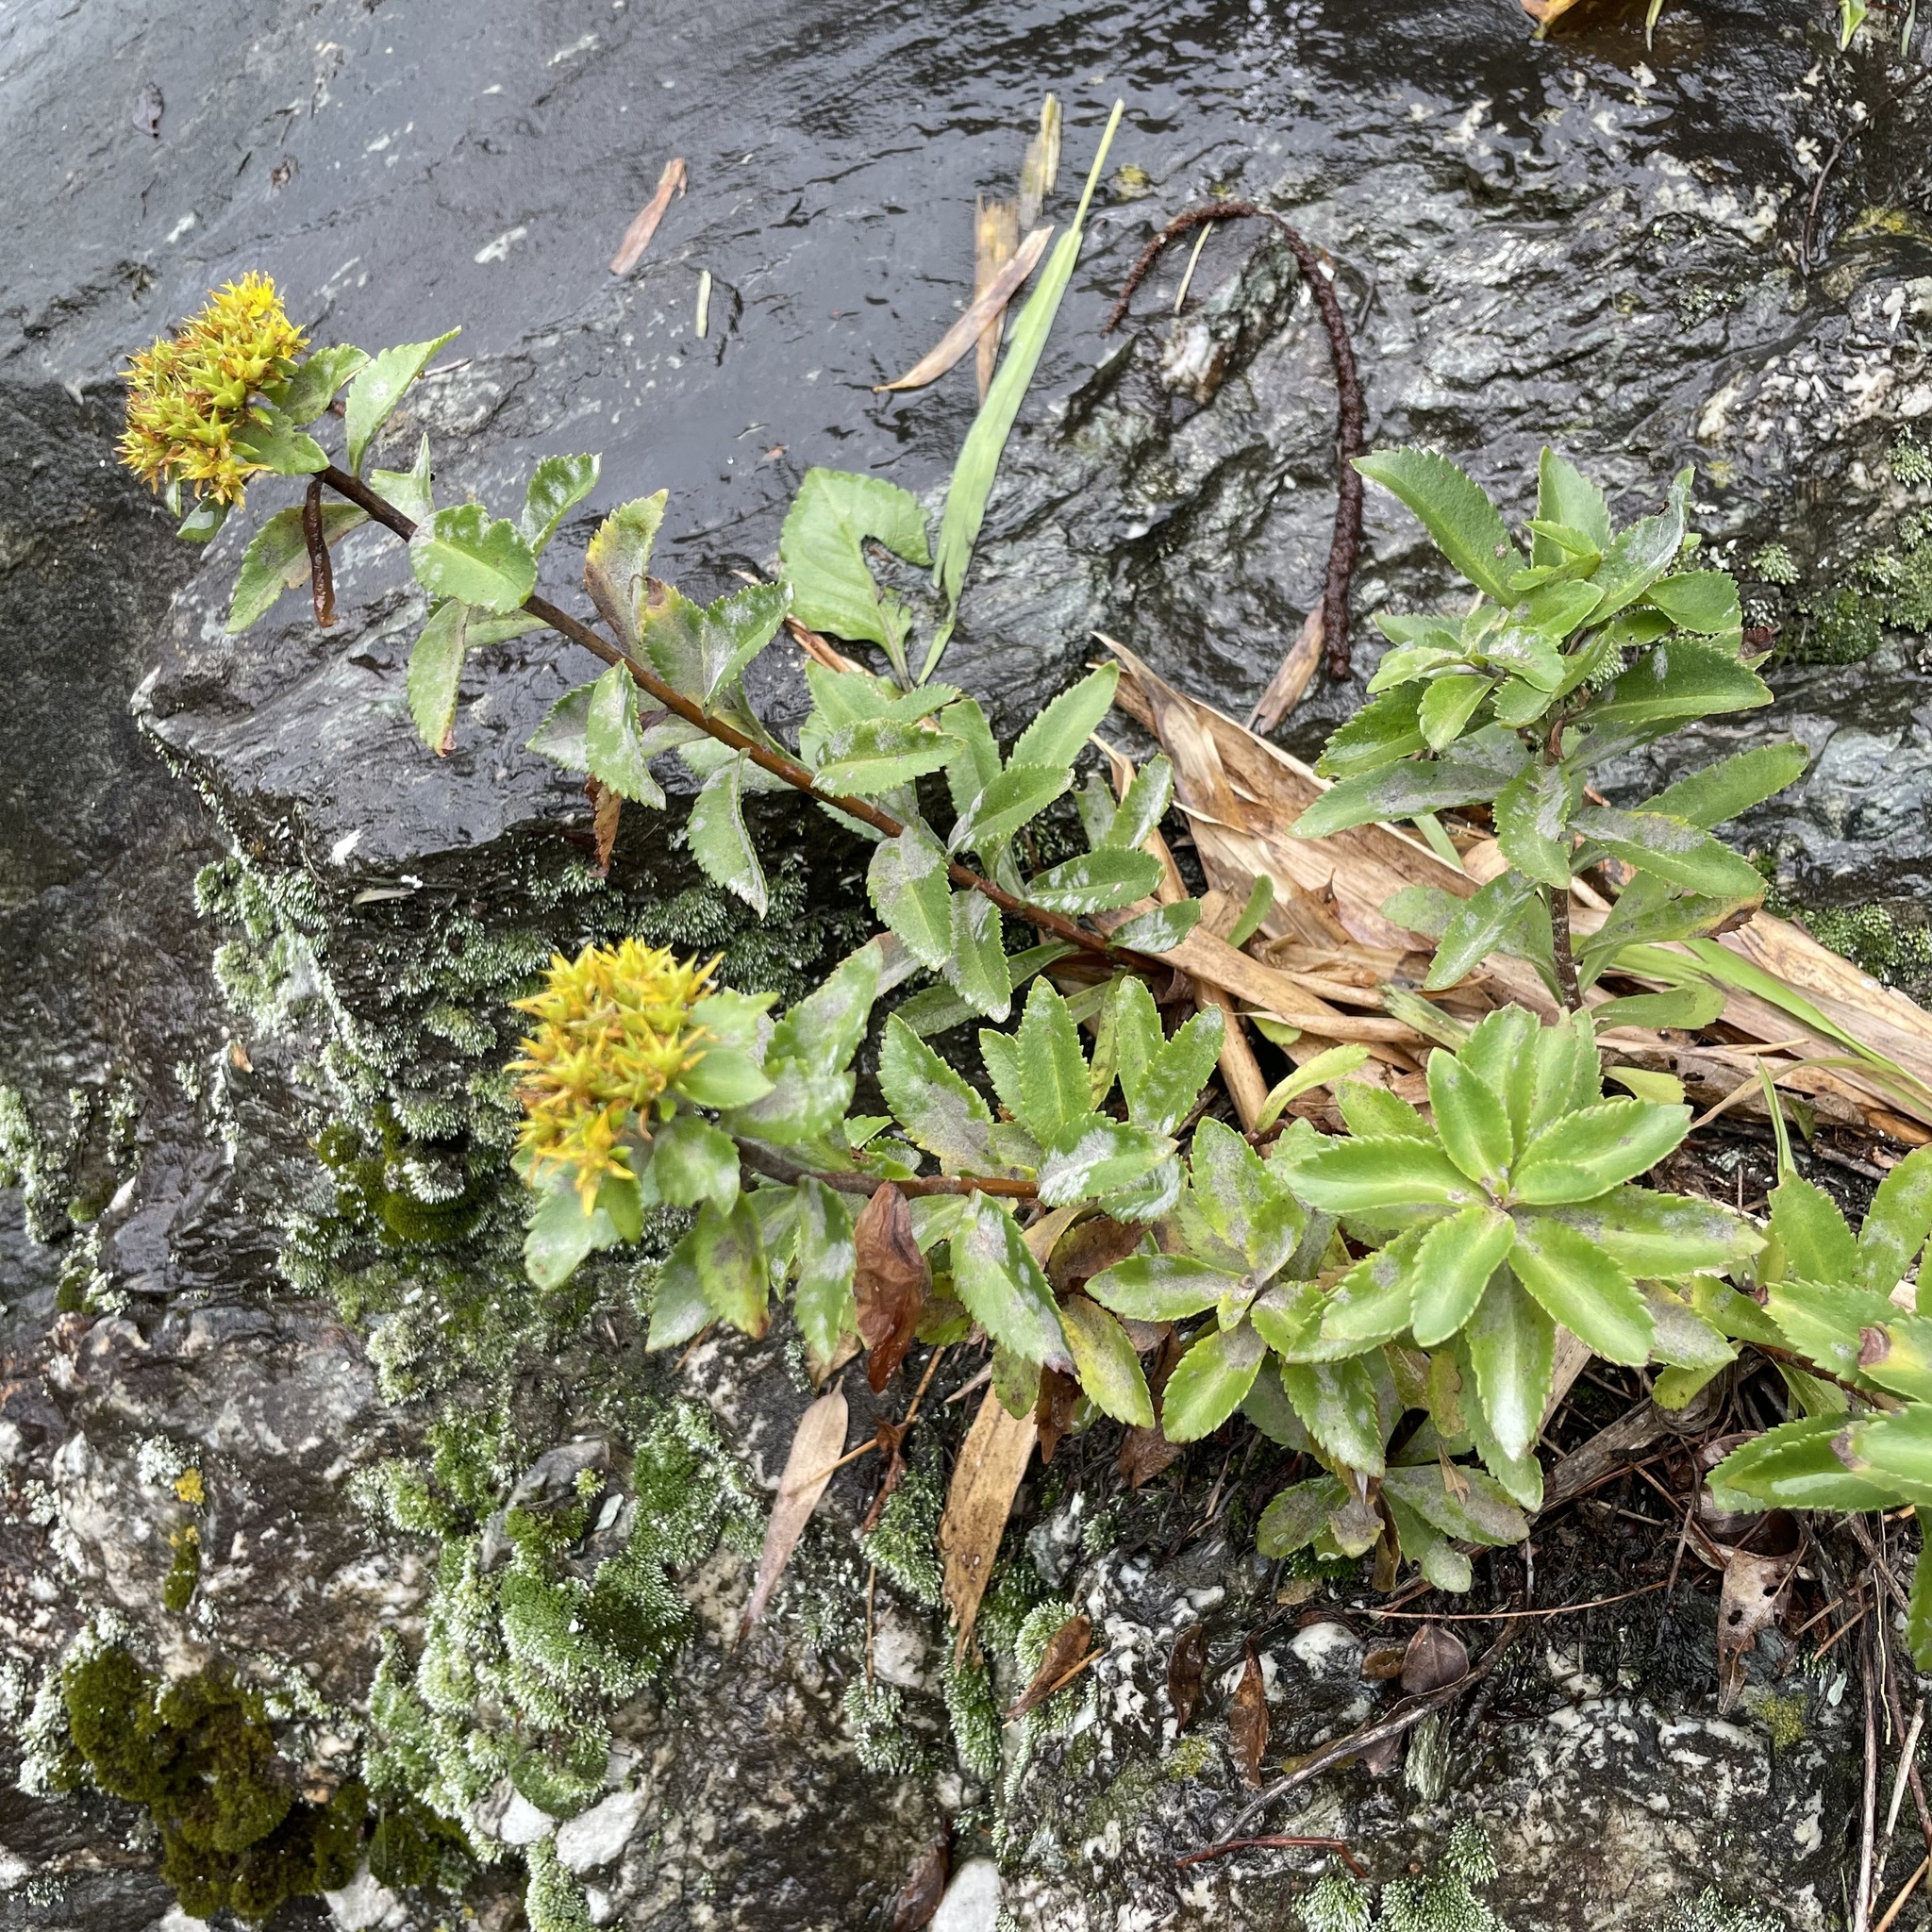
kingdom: Plantae
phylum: Tracheophyta
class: Magnoliopsida
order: Saxifragales
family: Crassulaceae
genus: Phedimus
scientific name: Phedimus aizoon
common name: Orpin aizoon
